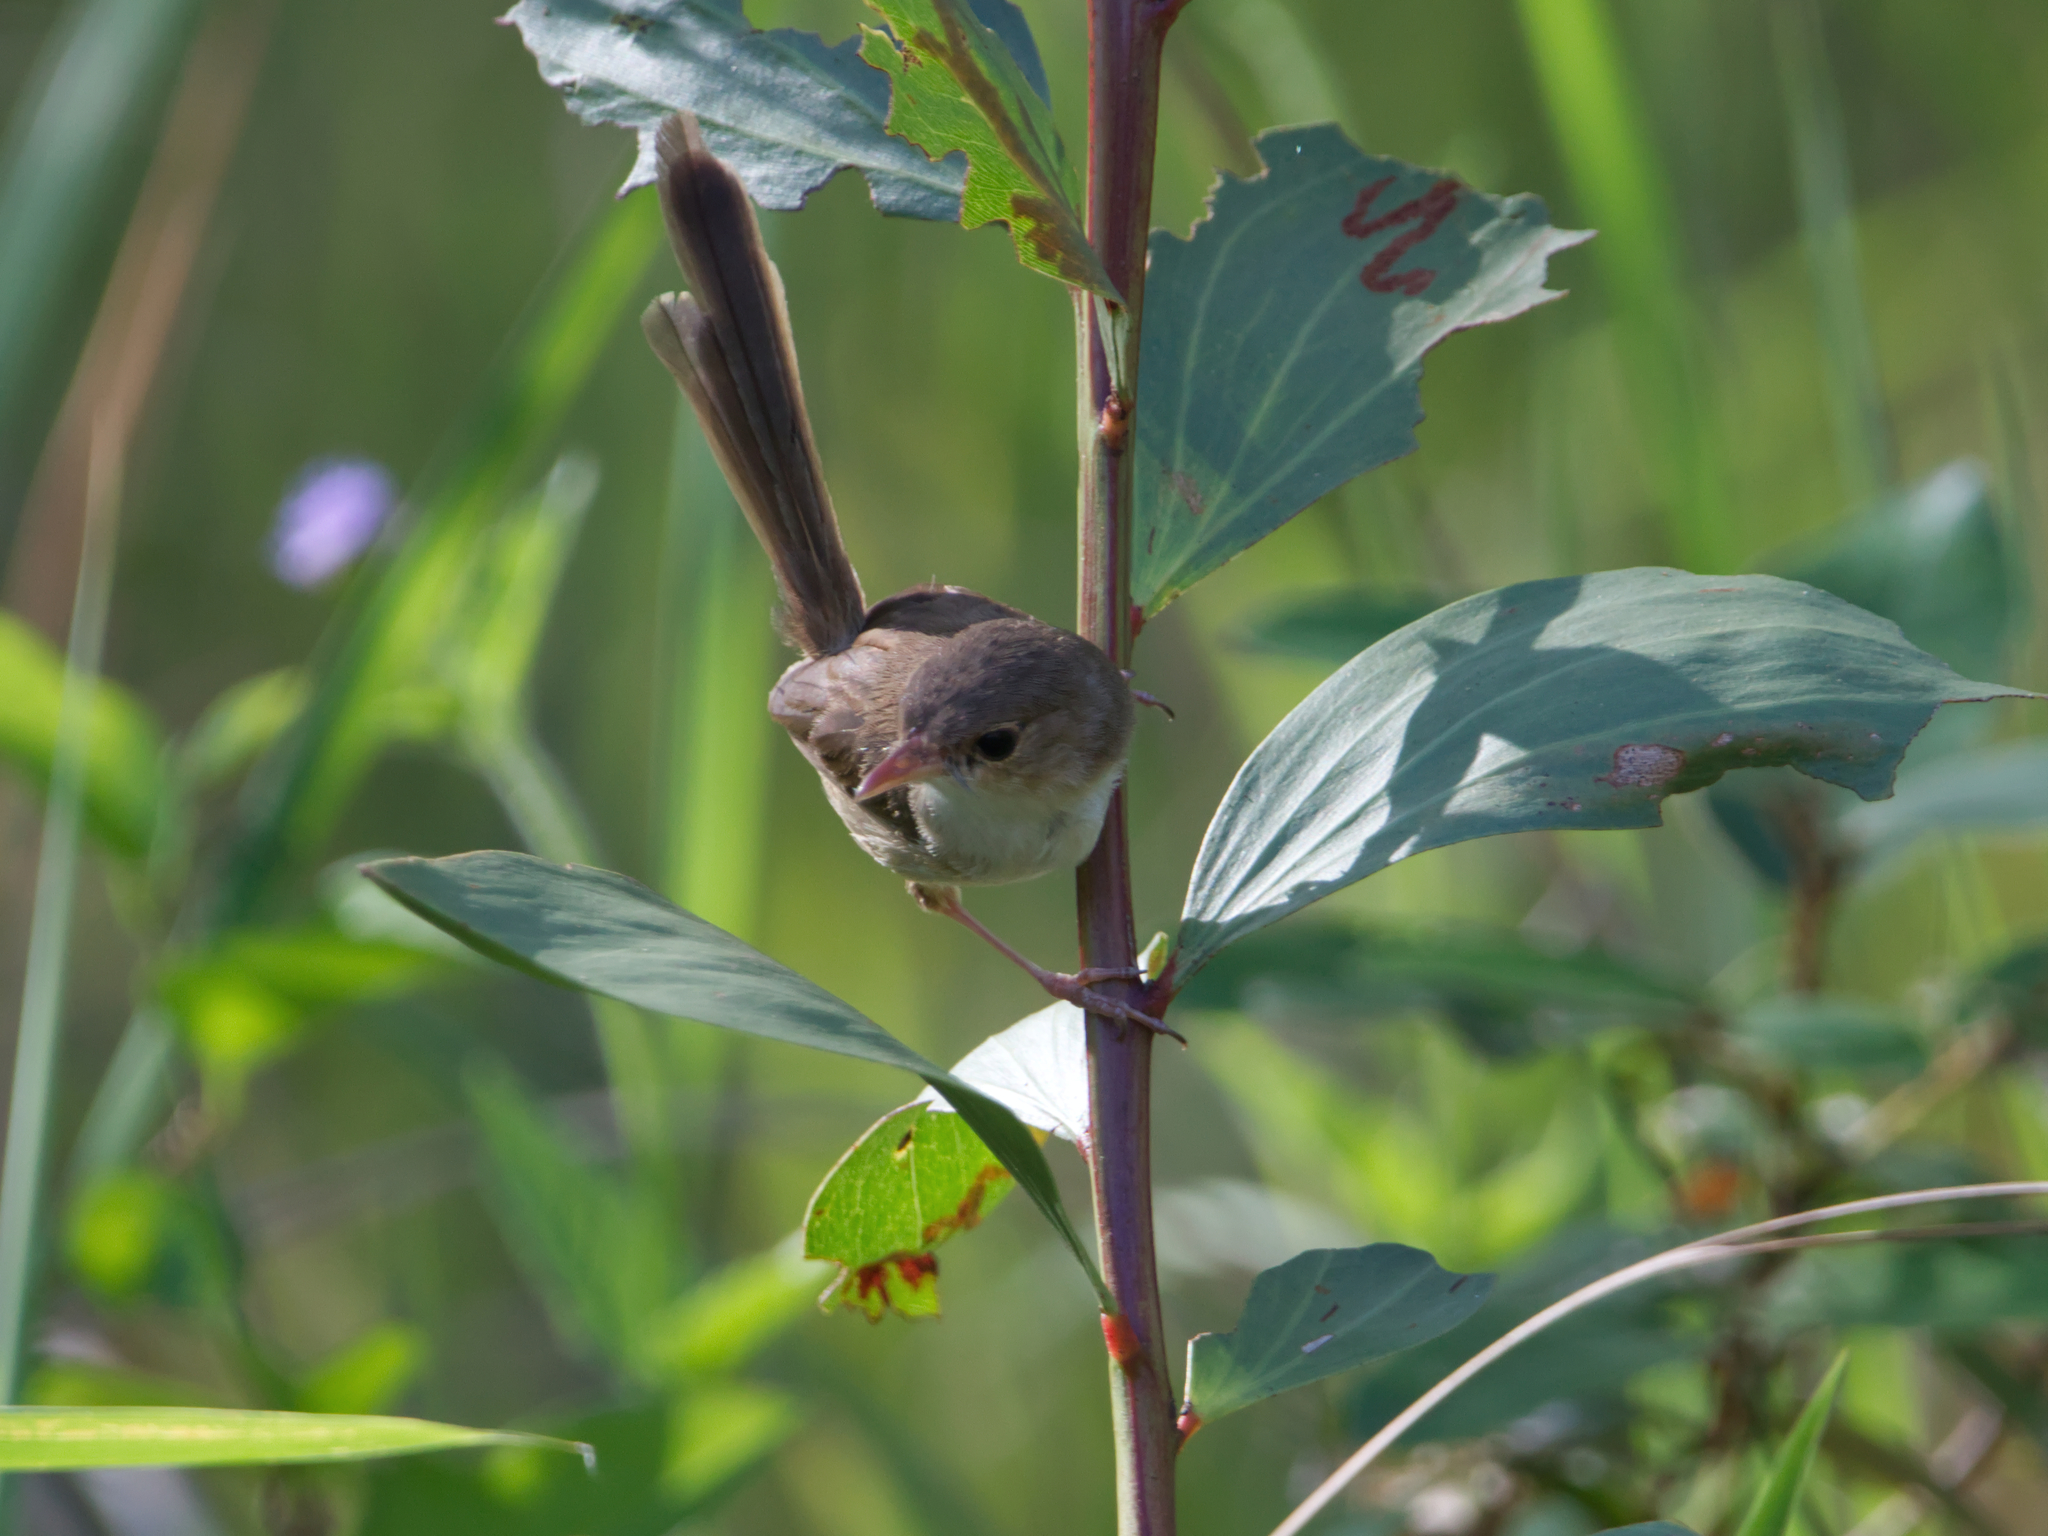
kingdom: Animalia
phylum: Chordata
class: Aves
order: Passeriformes
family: Maluridae
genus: Malurus
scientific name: Malurus melanocephalus
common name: Red-backed fairywren
